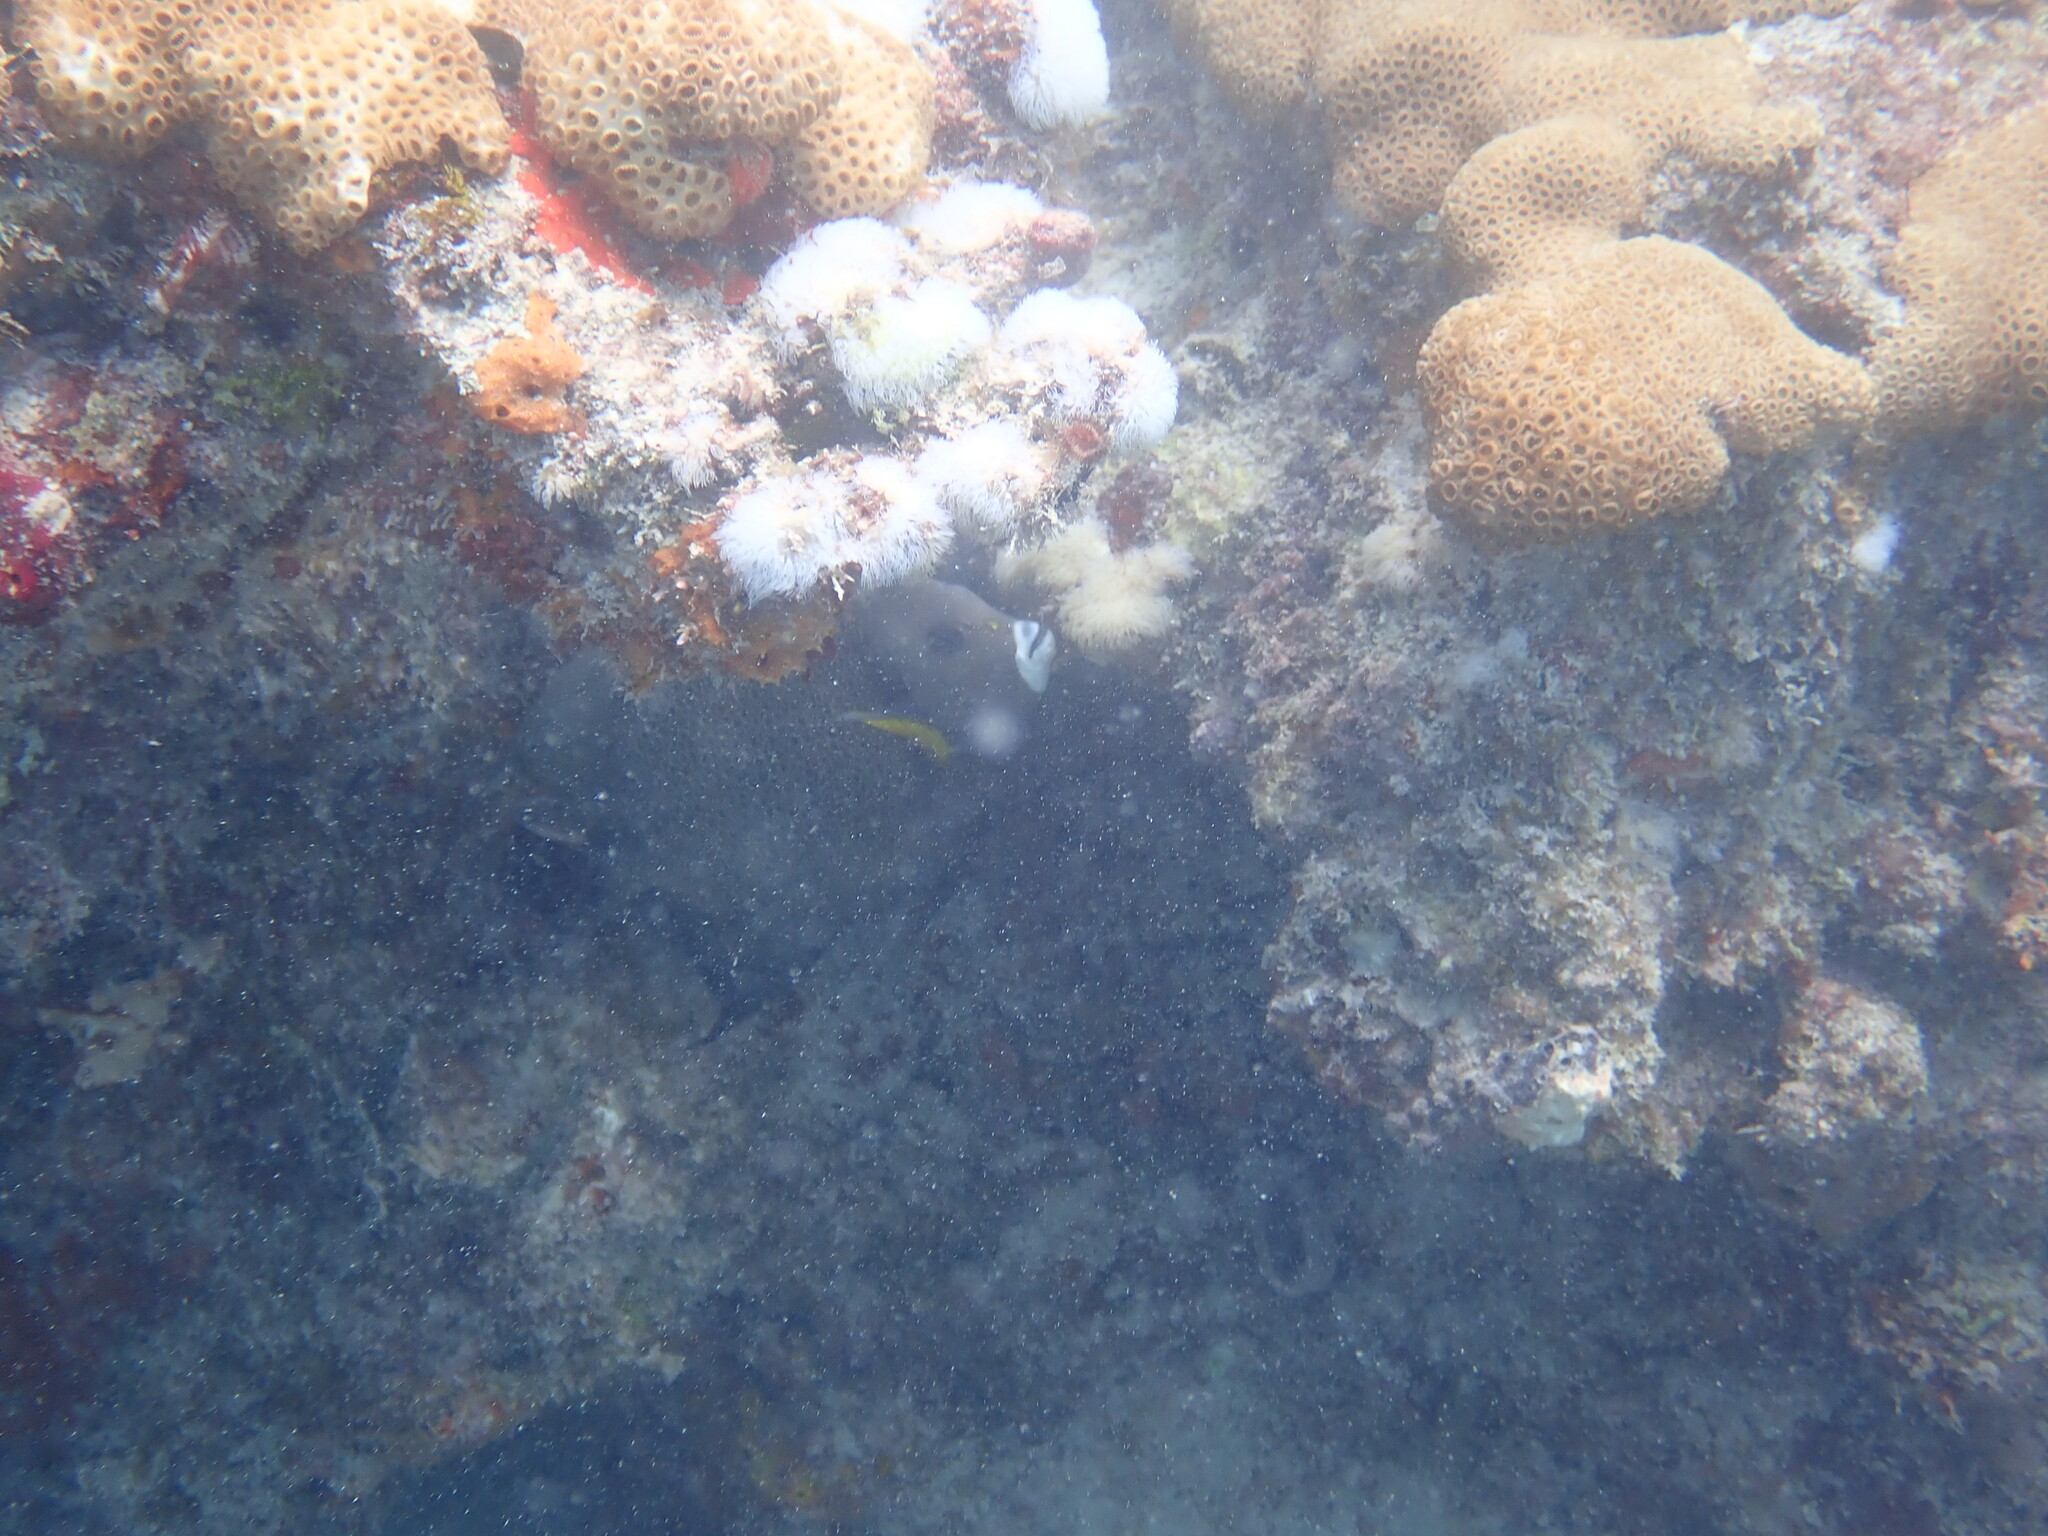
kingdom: Animalia
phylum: Chordata
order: Perciformes
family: Pomacanthidae
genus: Pomacanthus
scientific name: Pomacanthus arcuatus
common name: Gray angelfish
